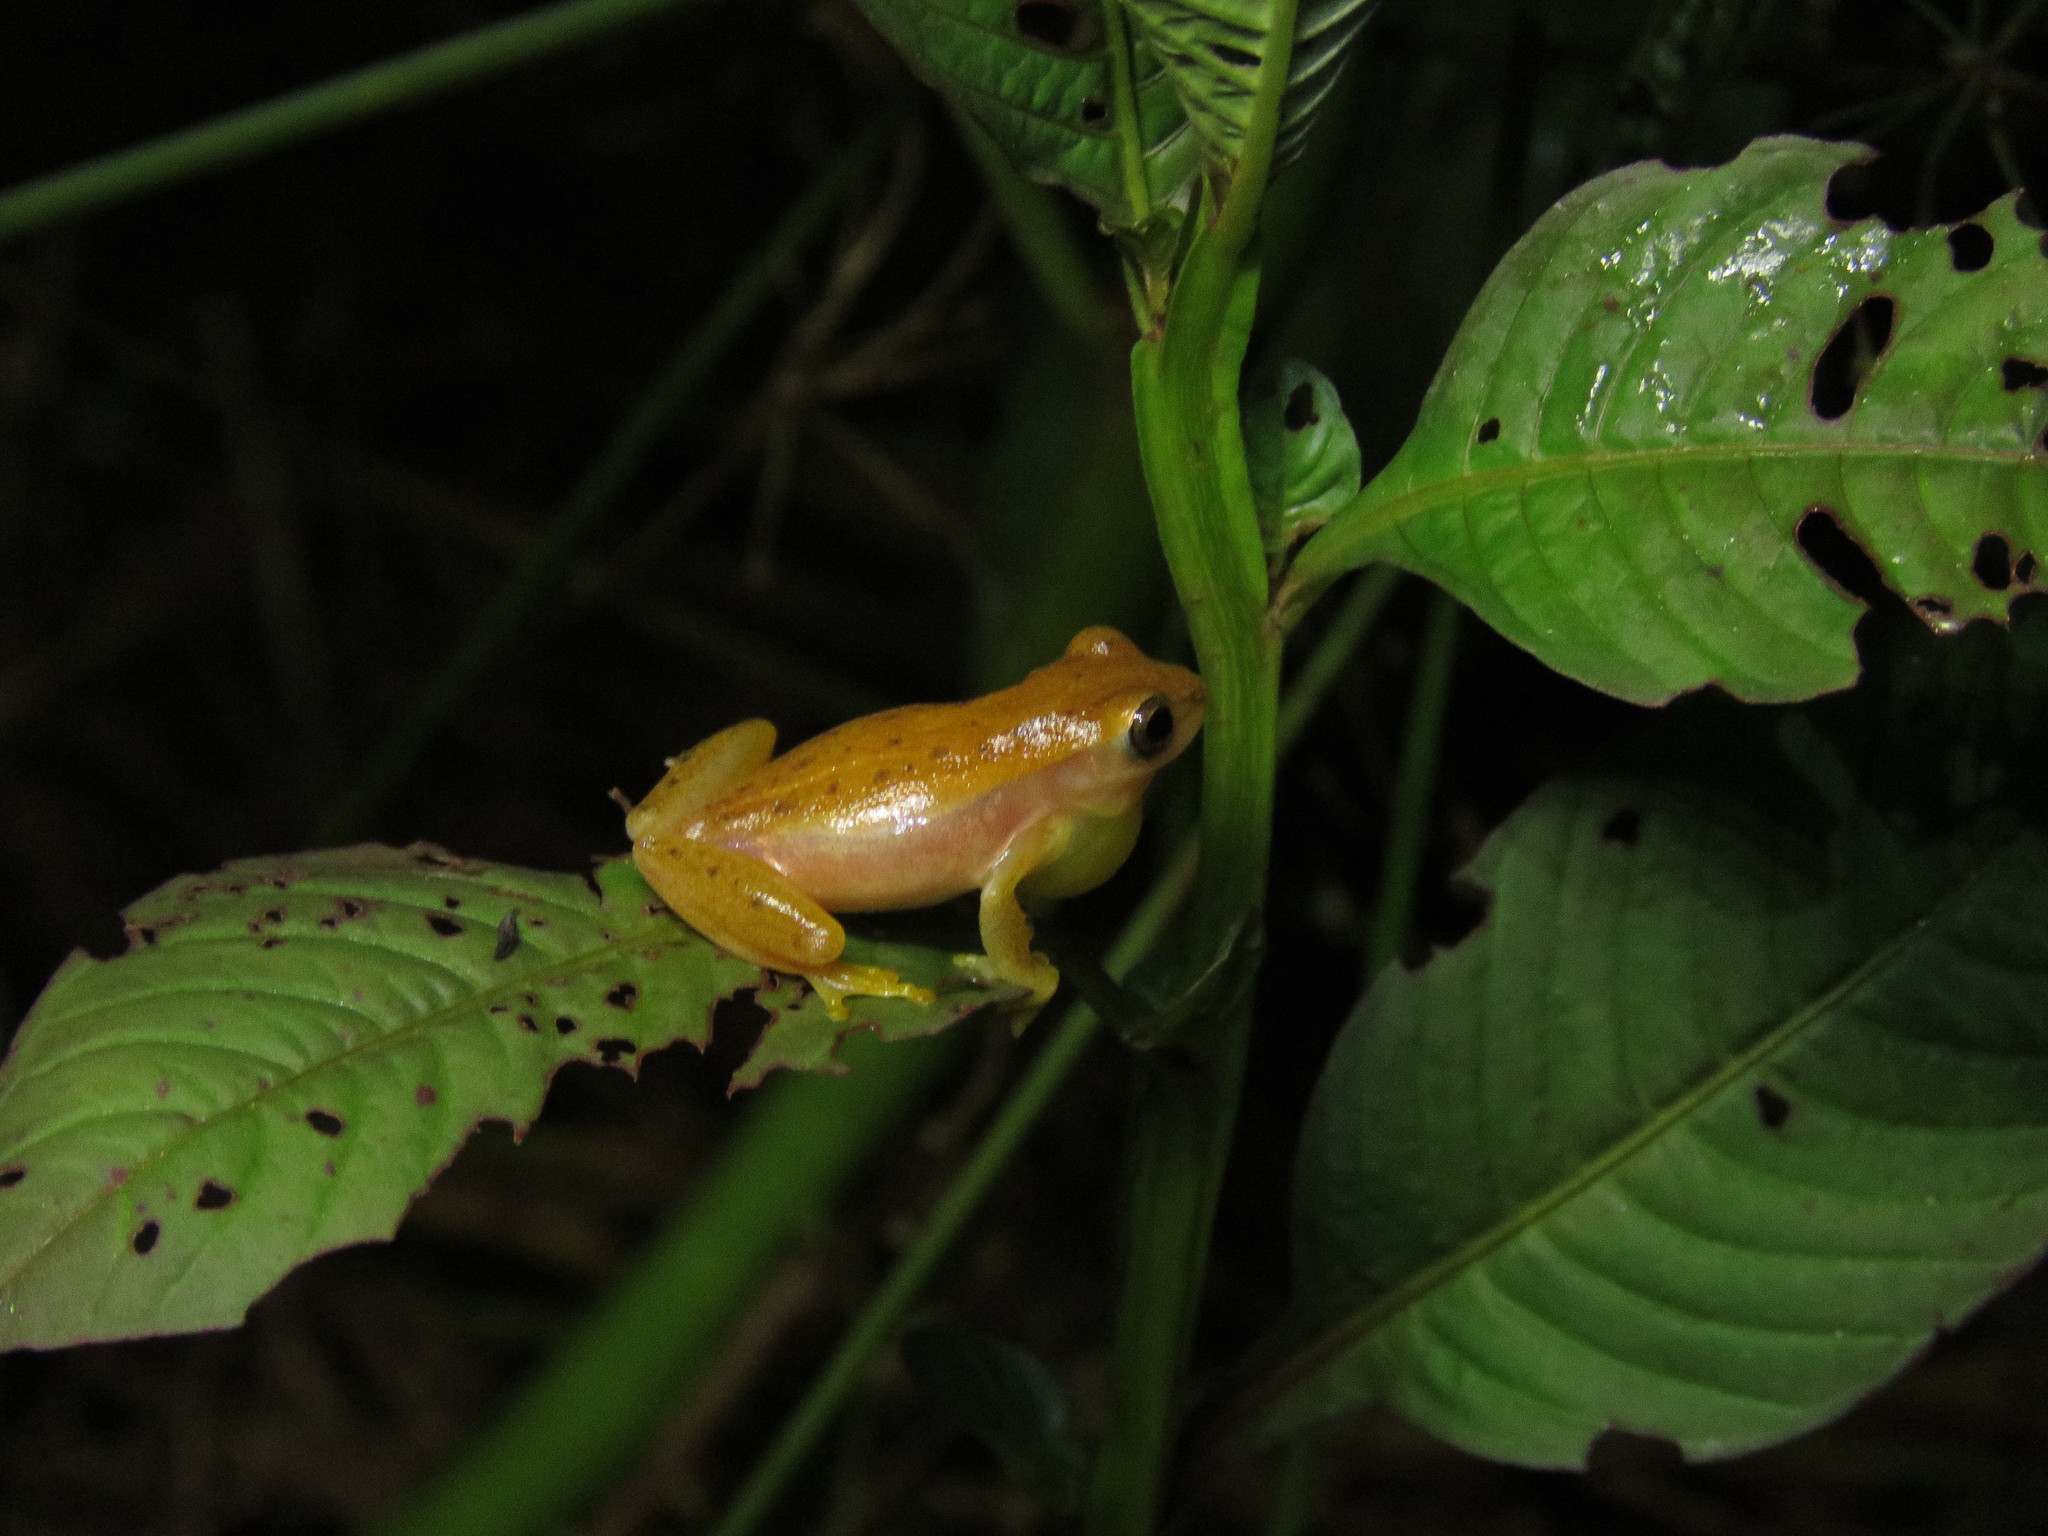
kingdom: Animalia
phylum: Chordata
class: Amphibia
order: Anura
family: Hylidae
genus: Dendropsophus
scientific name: Dendropsophus walfordi
